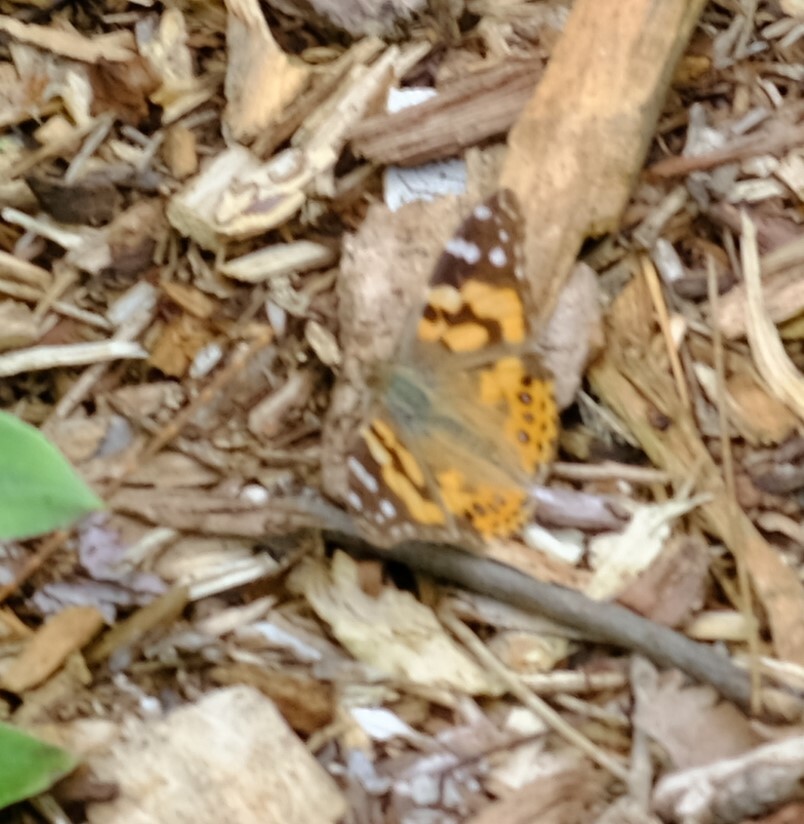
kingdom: Animalia
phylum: Arthropoda
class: Insecta
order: Lepidoptera
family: Nymphalidae
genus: Vanessa
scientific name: Vanessa kershawi
